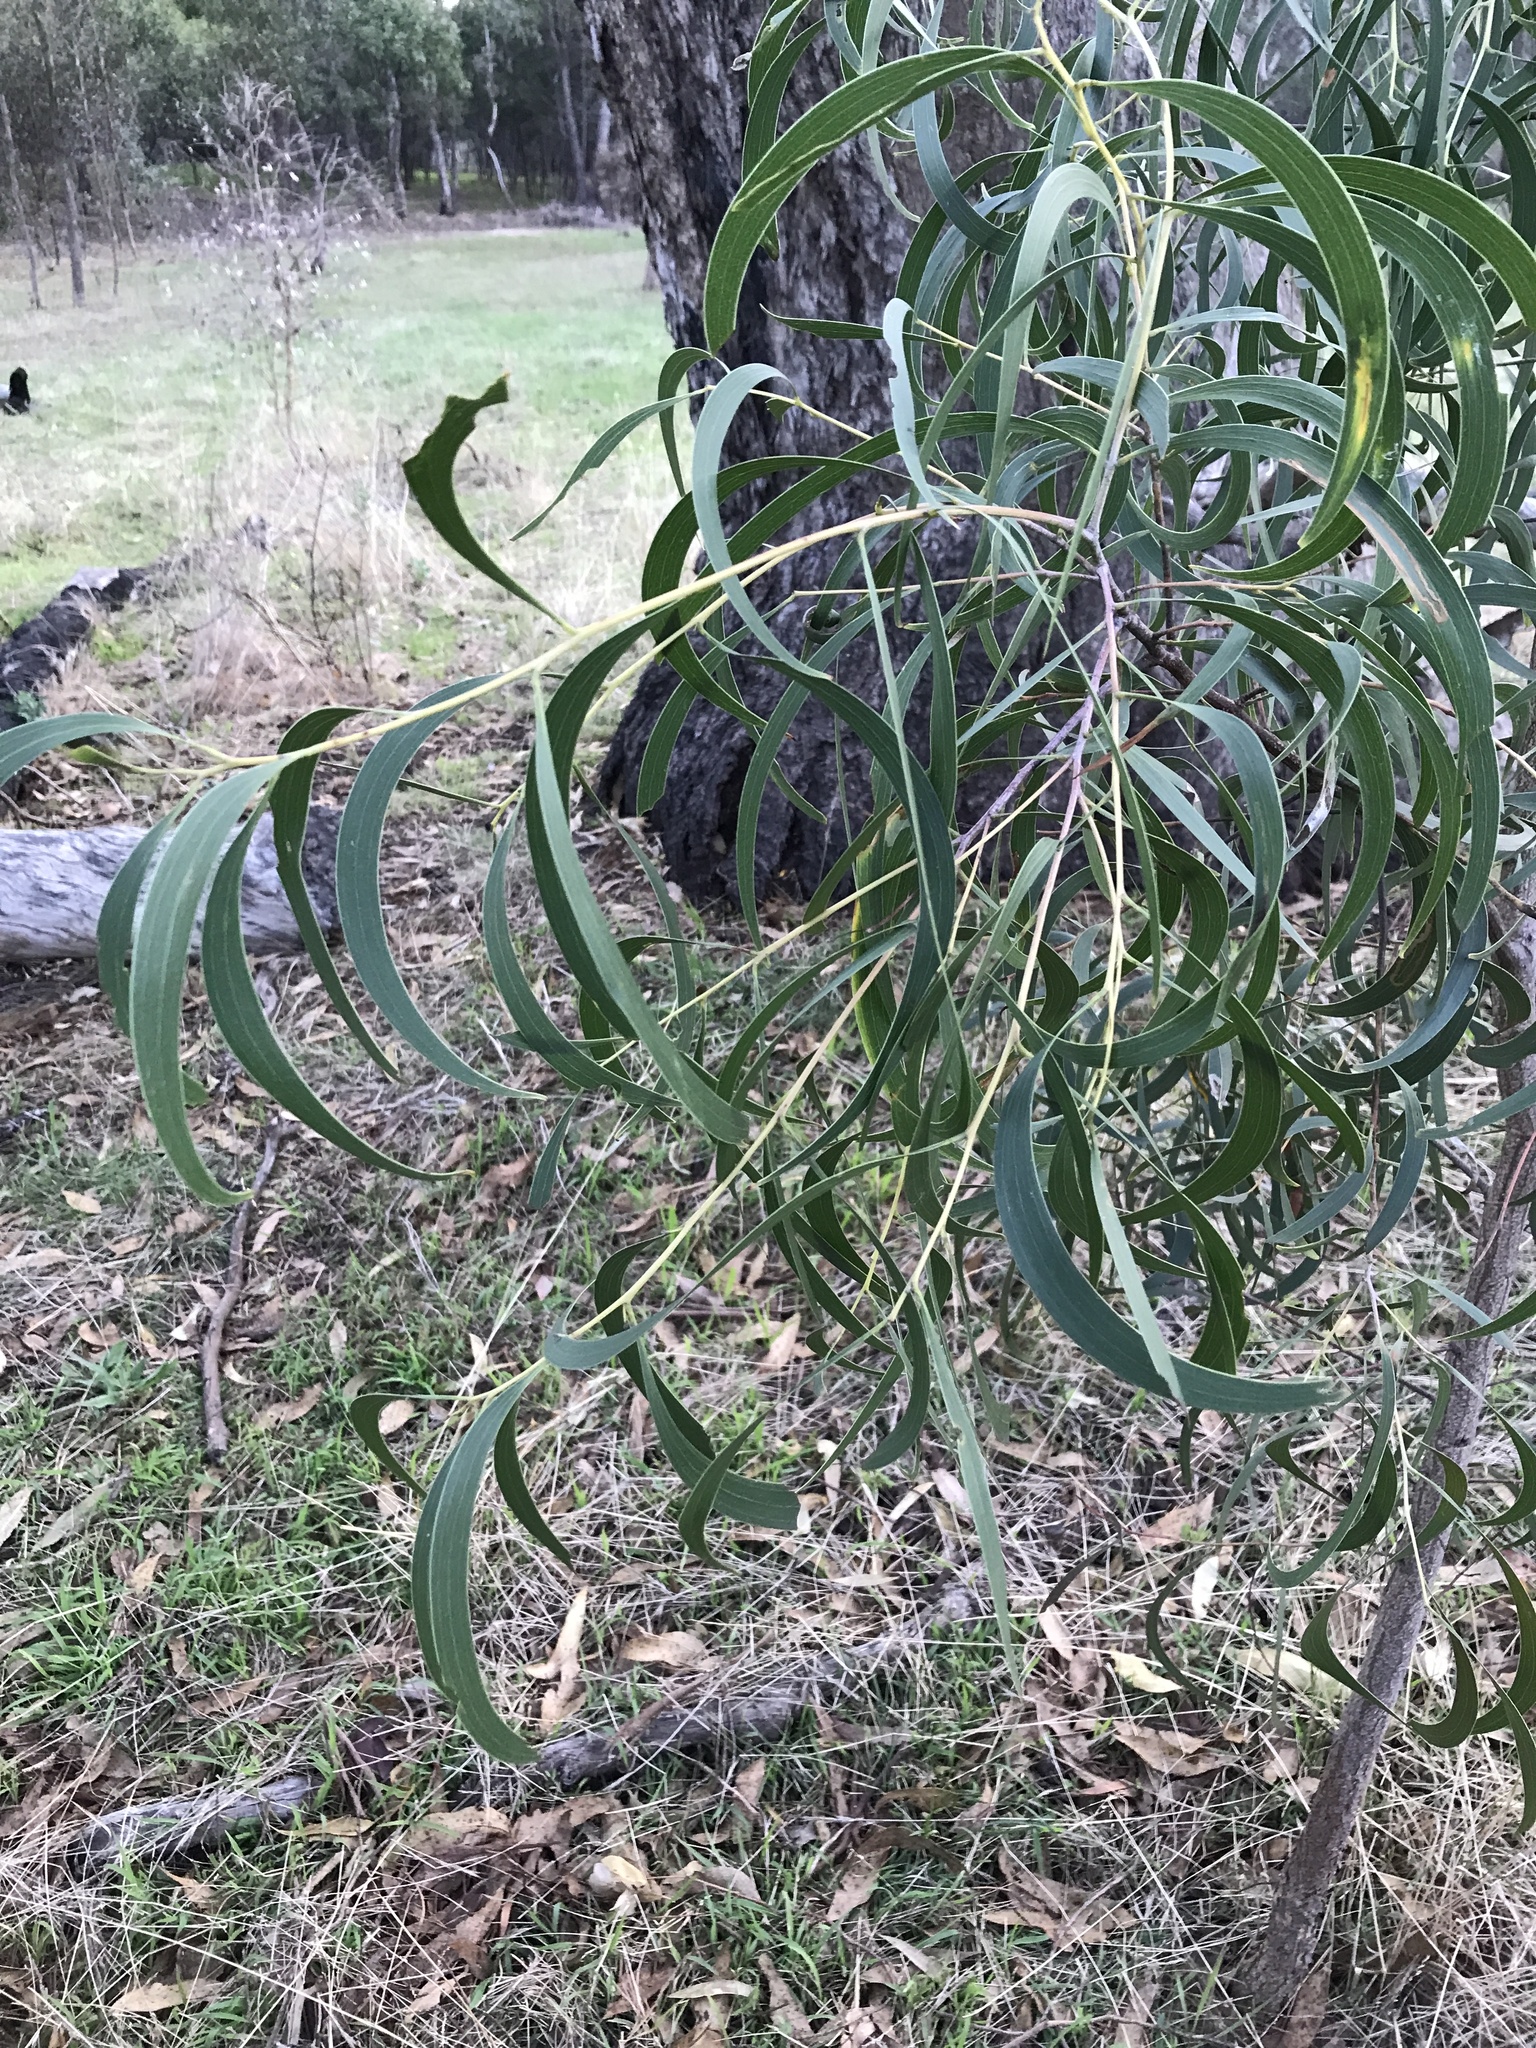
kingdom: Plantae
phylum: Tracheophyta
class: Magnoliopsida
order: Fabales
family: Fabaceae
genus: Acacia
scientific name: Acacia implexa
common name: Black wattle
